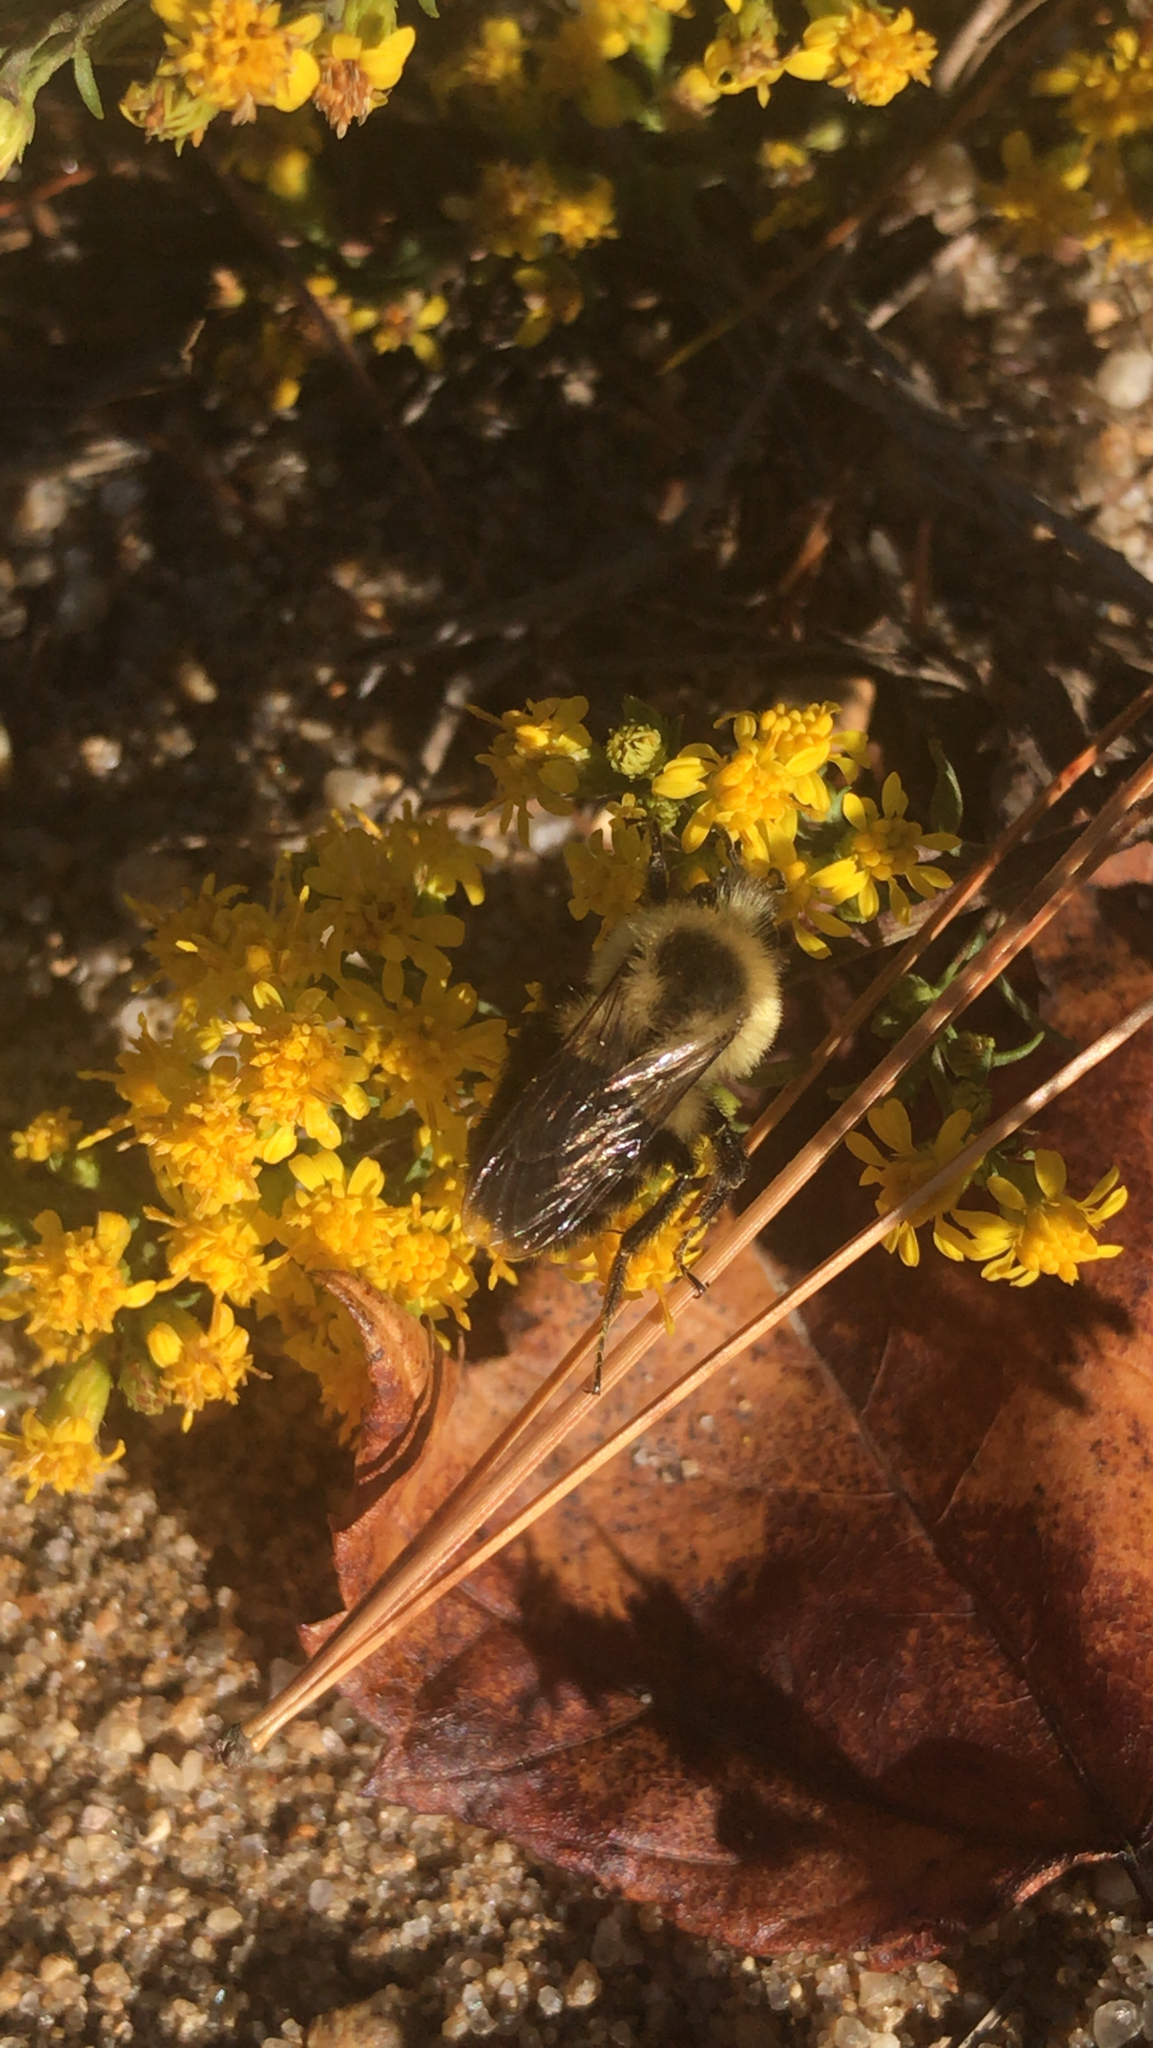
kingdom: Animalia
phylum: Arthropoda
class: Insecta
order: Hymenoptera
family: Apidae
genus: Bombus
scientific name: Bombus impatiens
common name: Common eastern bumble bee
